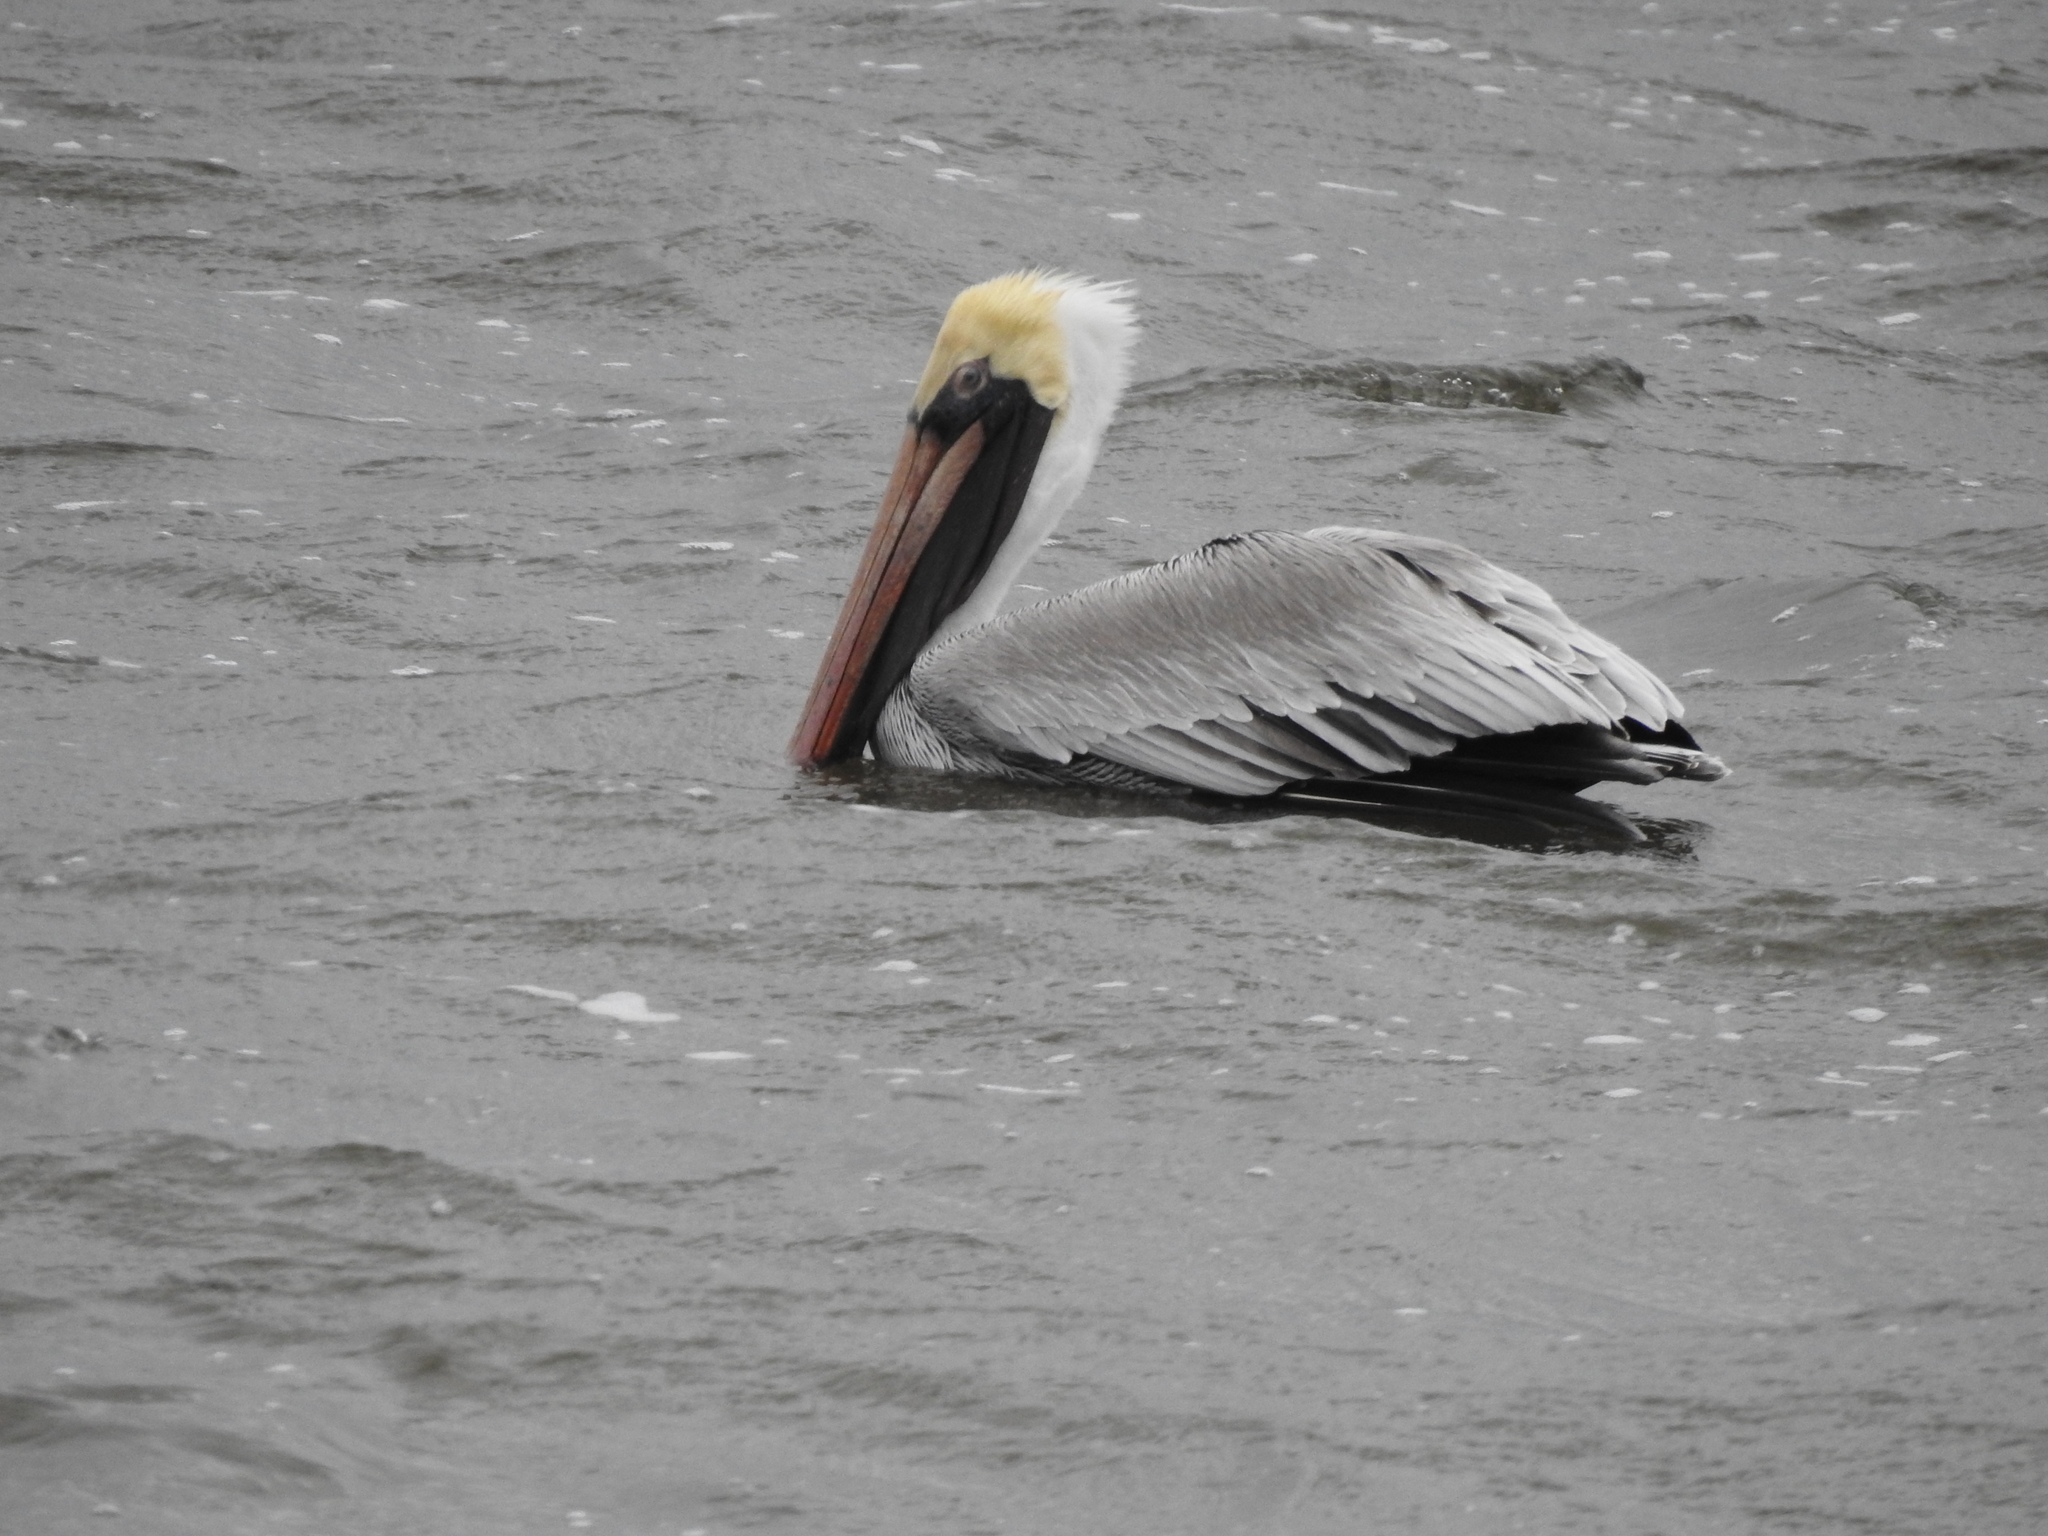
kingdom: Animalia
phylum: Chordata
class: Aves
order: Pelecaniformes
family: Pelecanidae
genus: Pelecanus
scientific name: Pelecanus occidentalis
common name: Brown pelican
